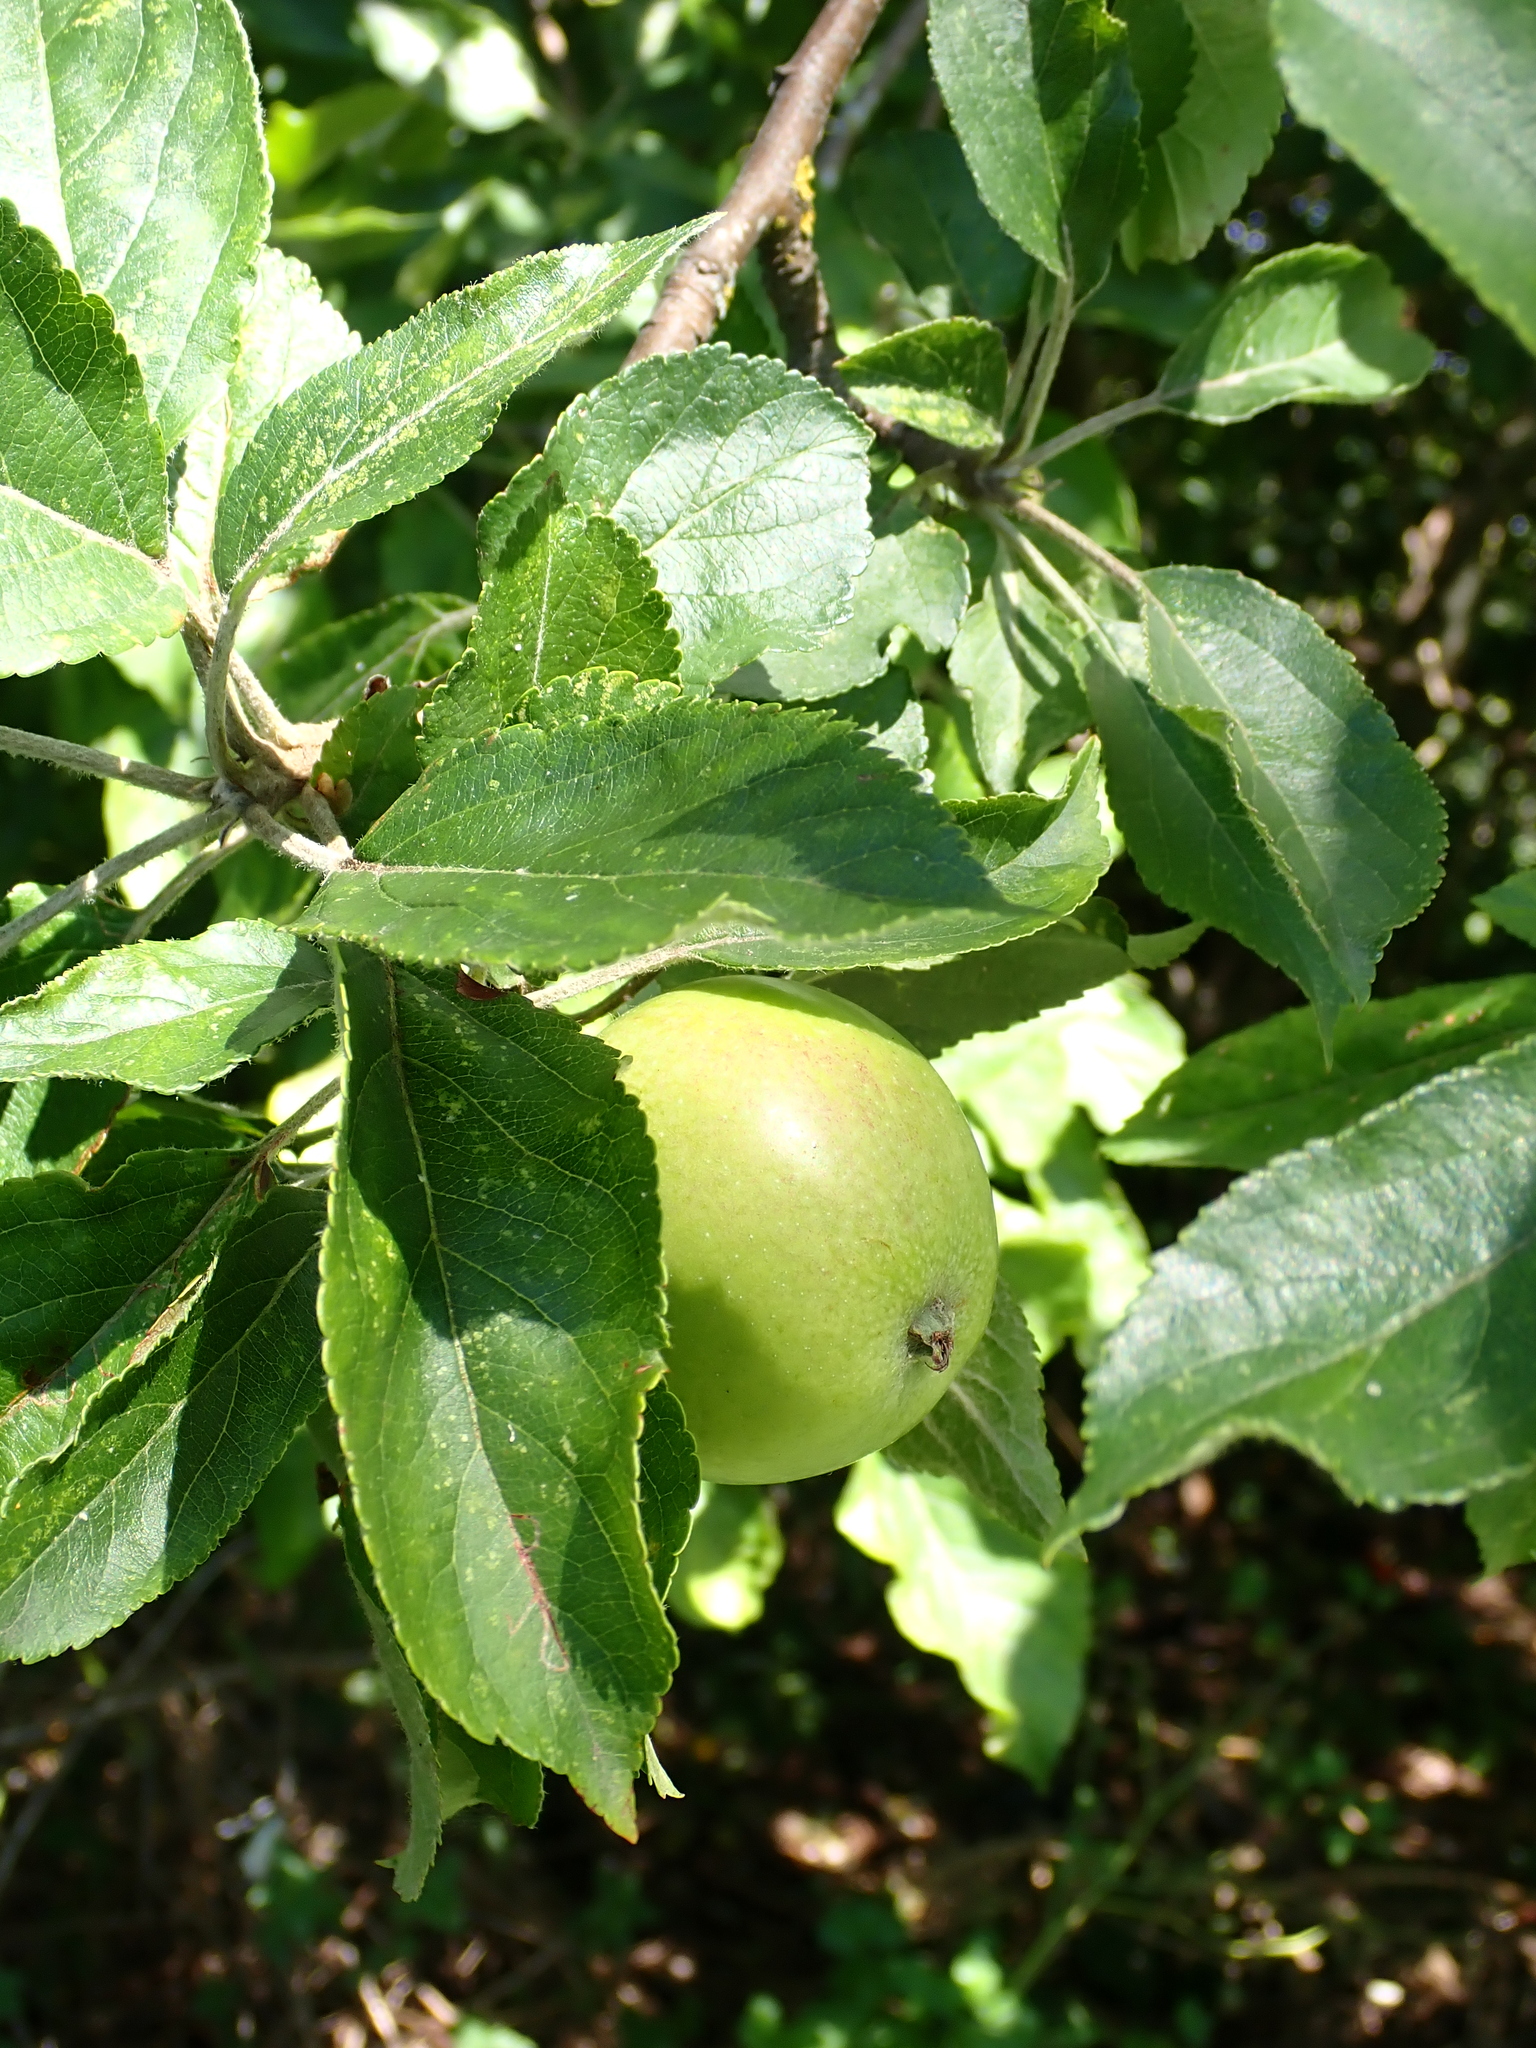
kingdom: Plantae
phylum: Tracheophyta
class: Magnoliopsida
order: Rosales
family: Rosaceae
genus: Malus
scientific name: Malus domestica
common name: Apple
